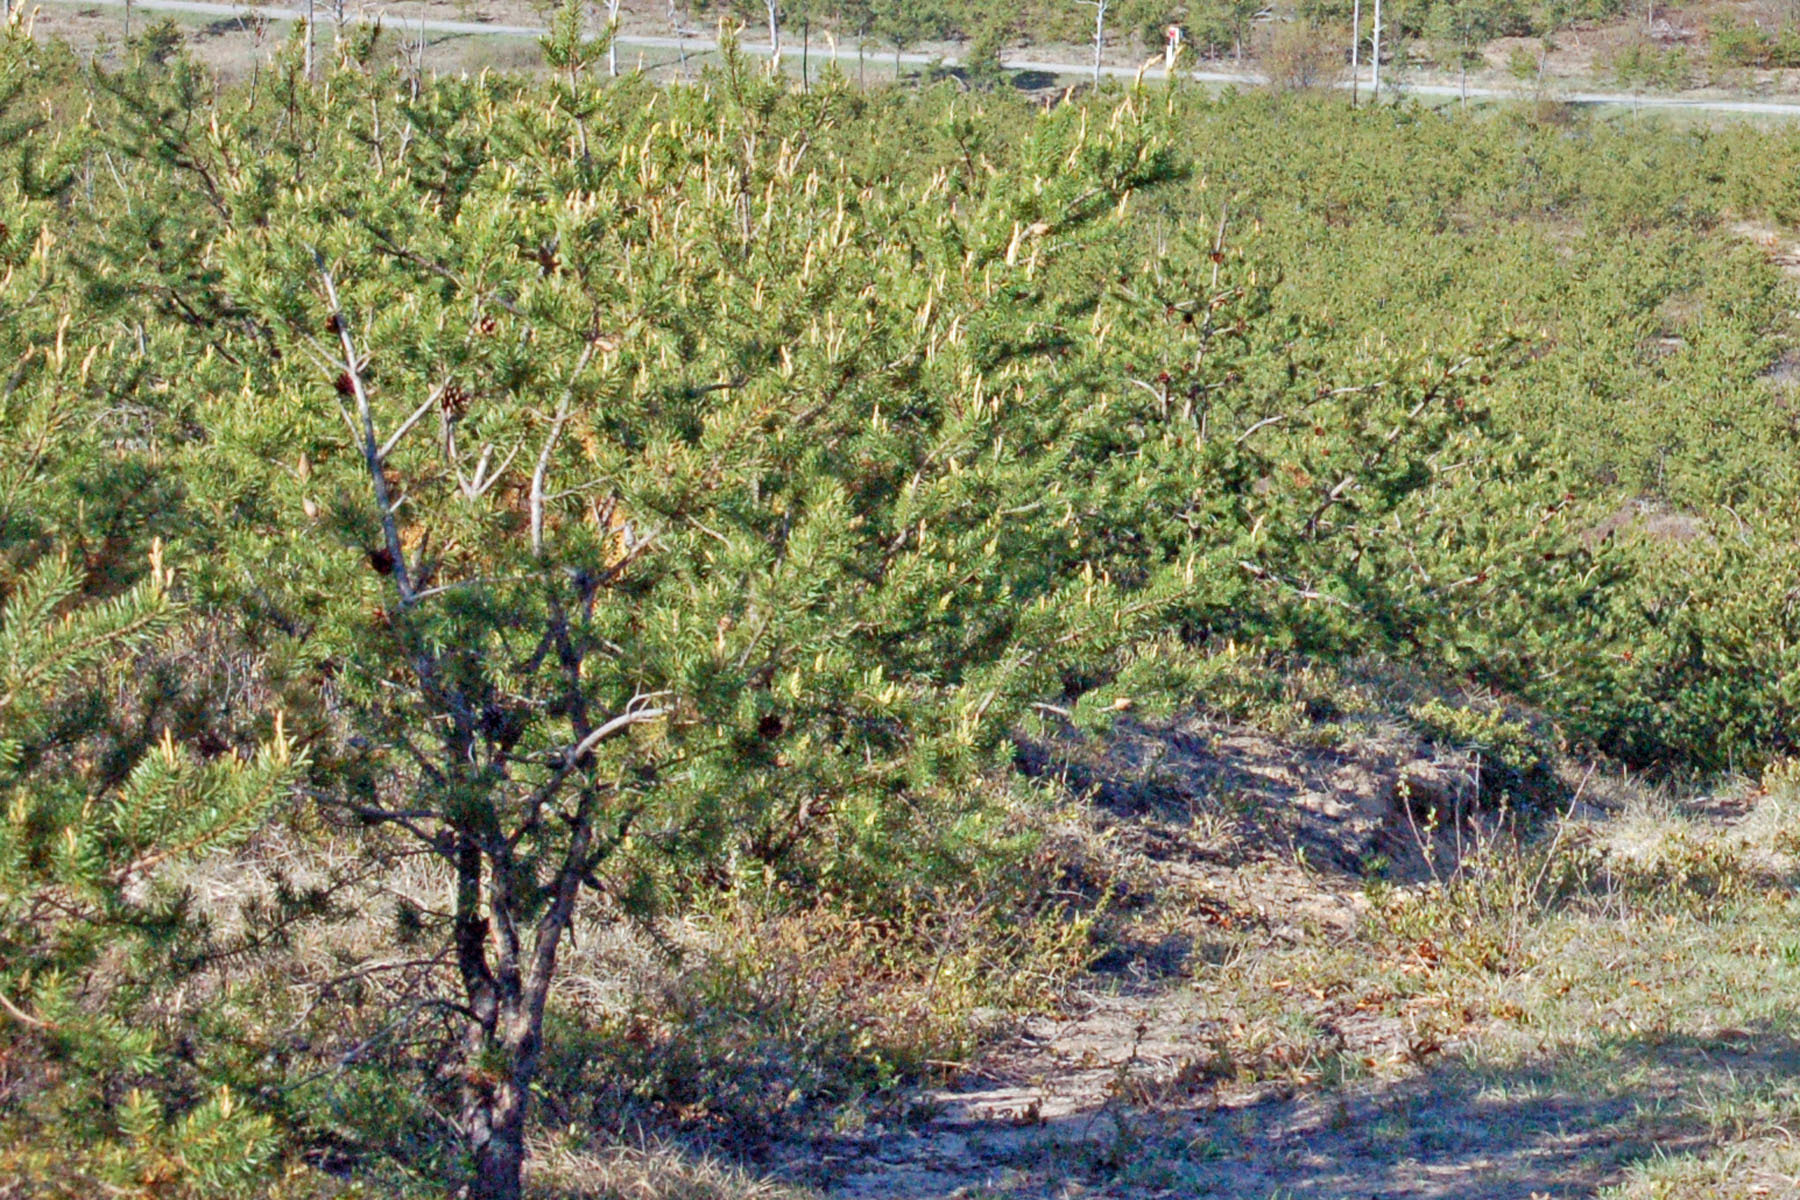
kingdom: Plantae
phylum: Tracheophyta
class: Pinopsida
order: Pinales
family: Pinaceae
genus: Pinus
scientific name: Pinus banksiana
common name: Jack pine
